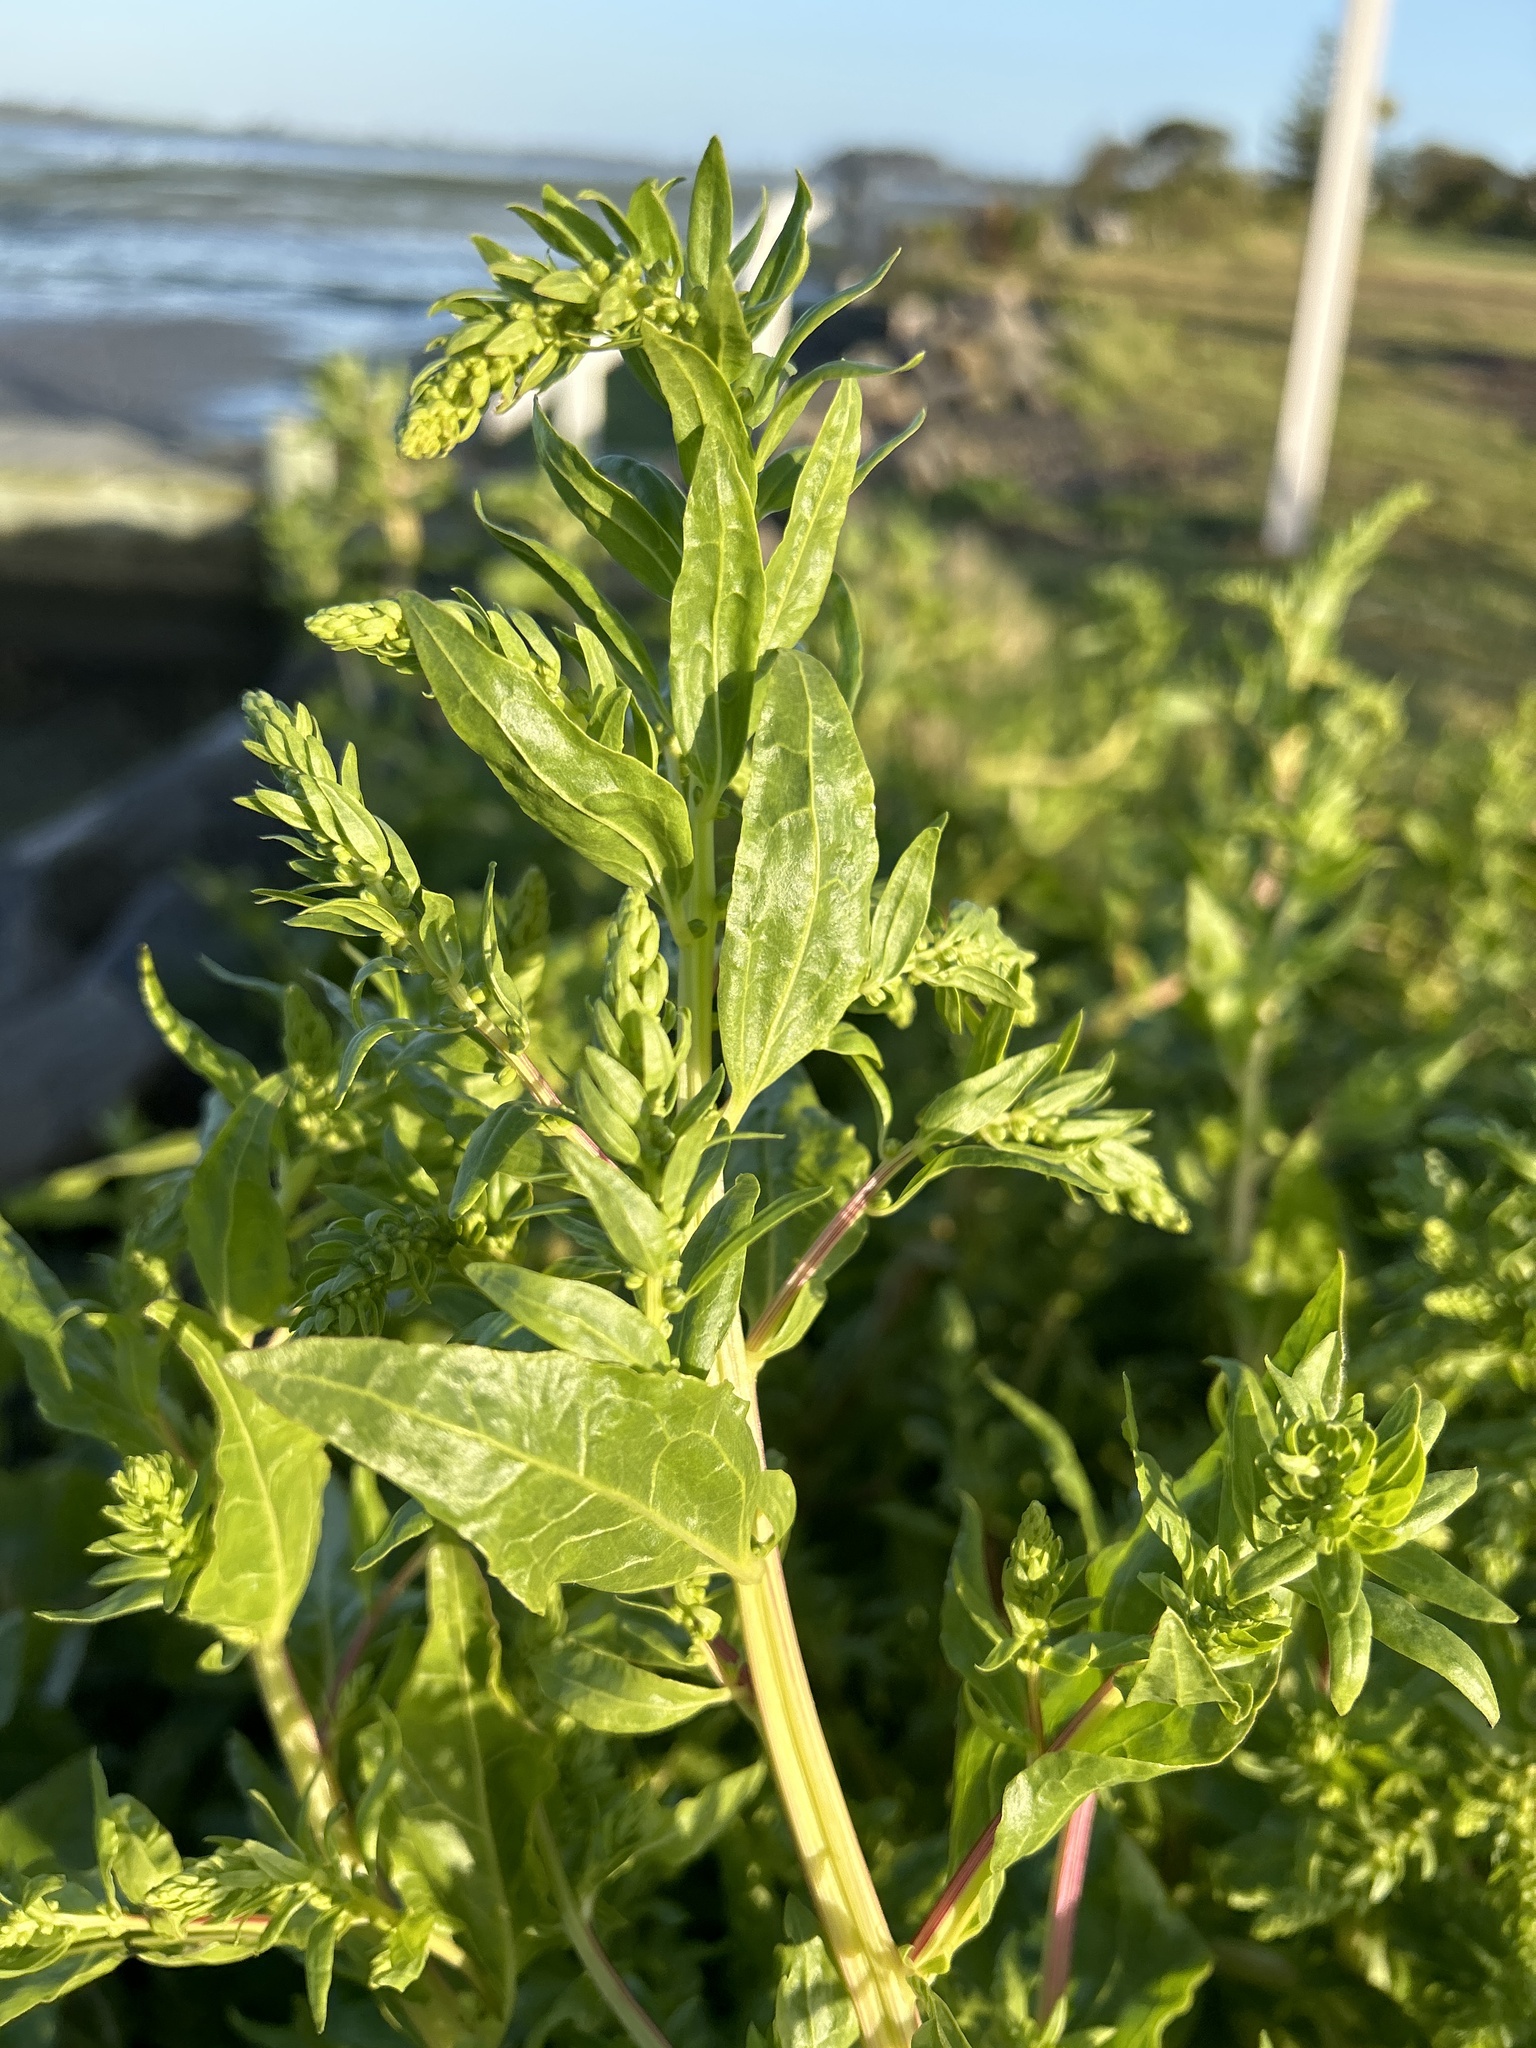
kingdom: Plantae
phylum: Tracheophyta
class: Magnoliopsida
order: Caryophyllales
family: Amaranthaceae
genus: Beta
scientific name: Beta vulgaris
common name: Beet
